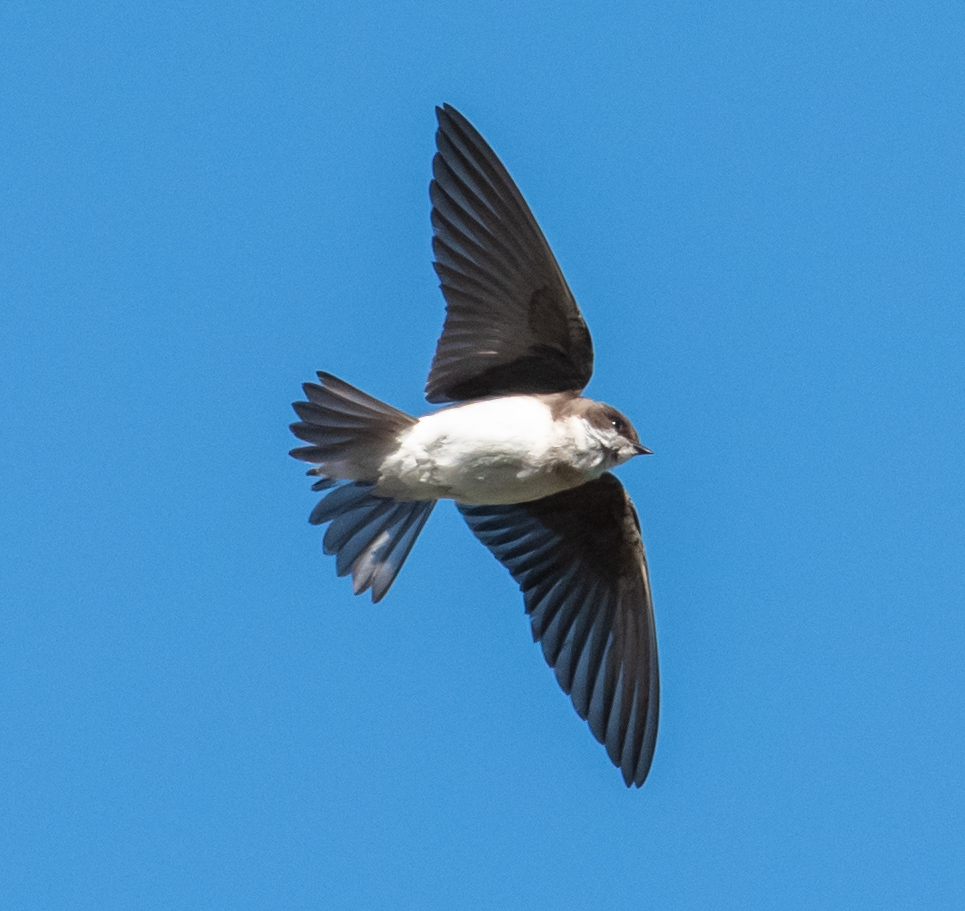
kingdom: Animalia
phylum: Chordata
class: Aves
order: Passeriformes
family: Hirundinidae
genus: Tachycineta
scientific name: Tachycineta bicolor
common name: Tree swallow
